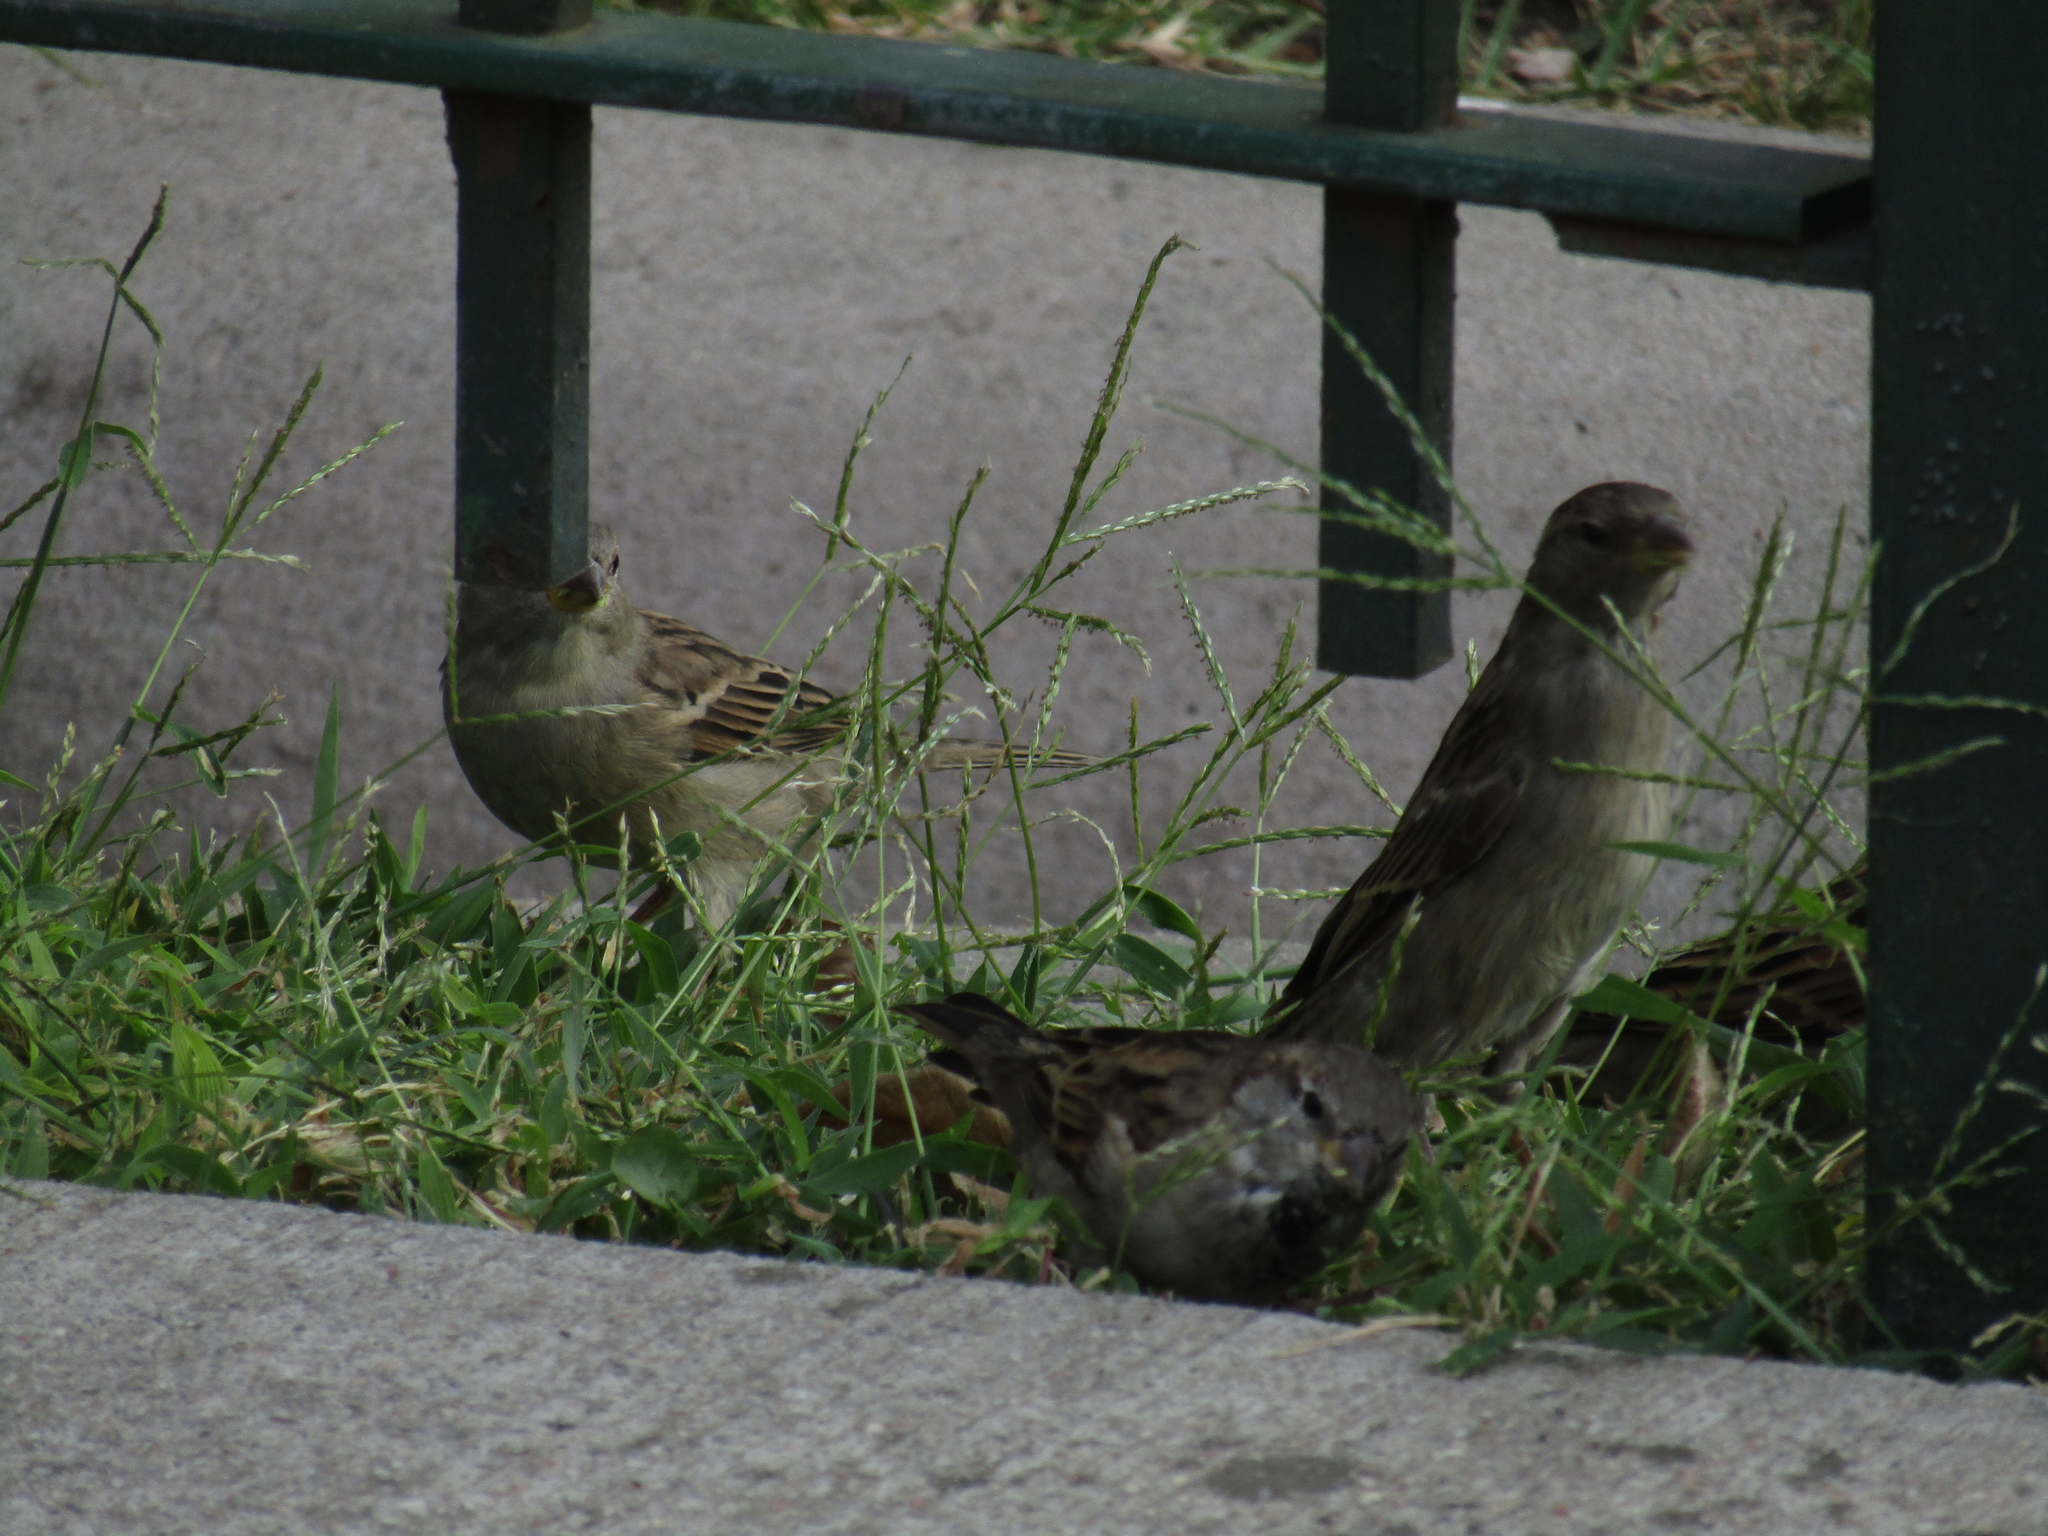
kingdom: Animalia
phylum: Chordata
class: Aves
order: Passeriformes
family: Passeridae
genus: Passer
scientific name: Passer domesticus
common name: House sparrow
